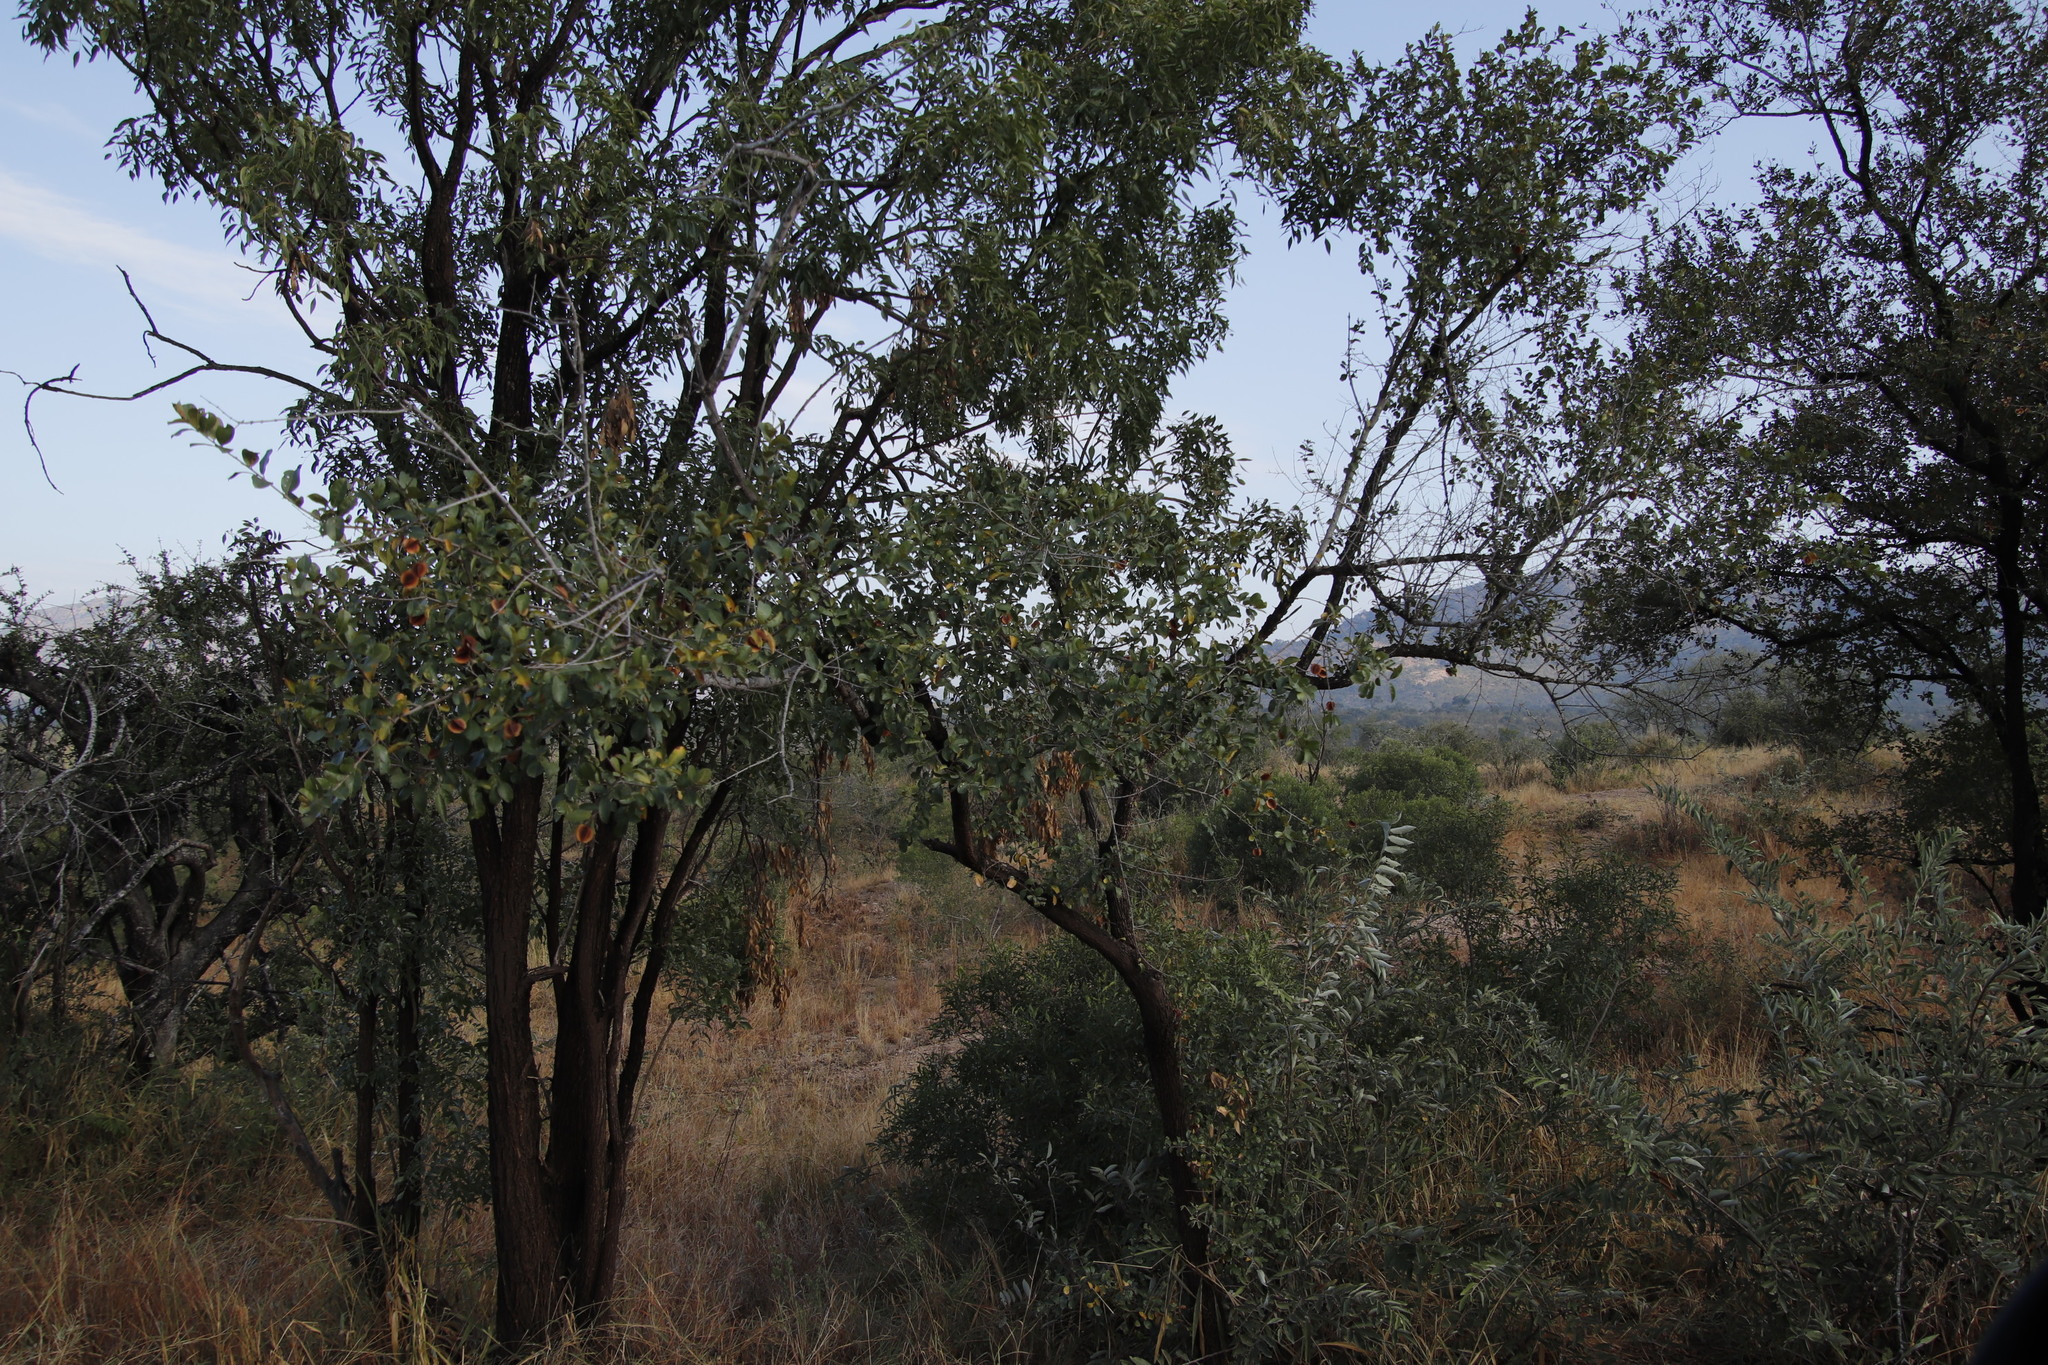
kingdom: Plantae
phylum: Tracheophyta
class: Magnoliopsida
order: Myrtales
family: Combretaceae
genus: Combretum
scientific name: Combretum hereroense
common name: Russet bushwillow
